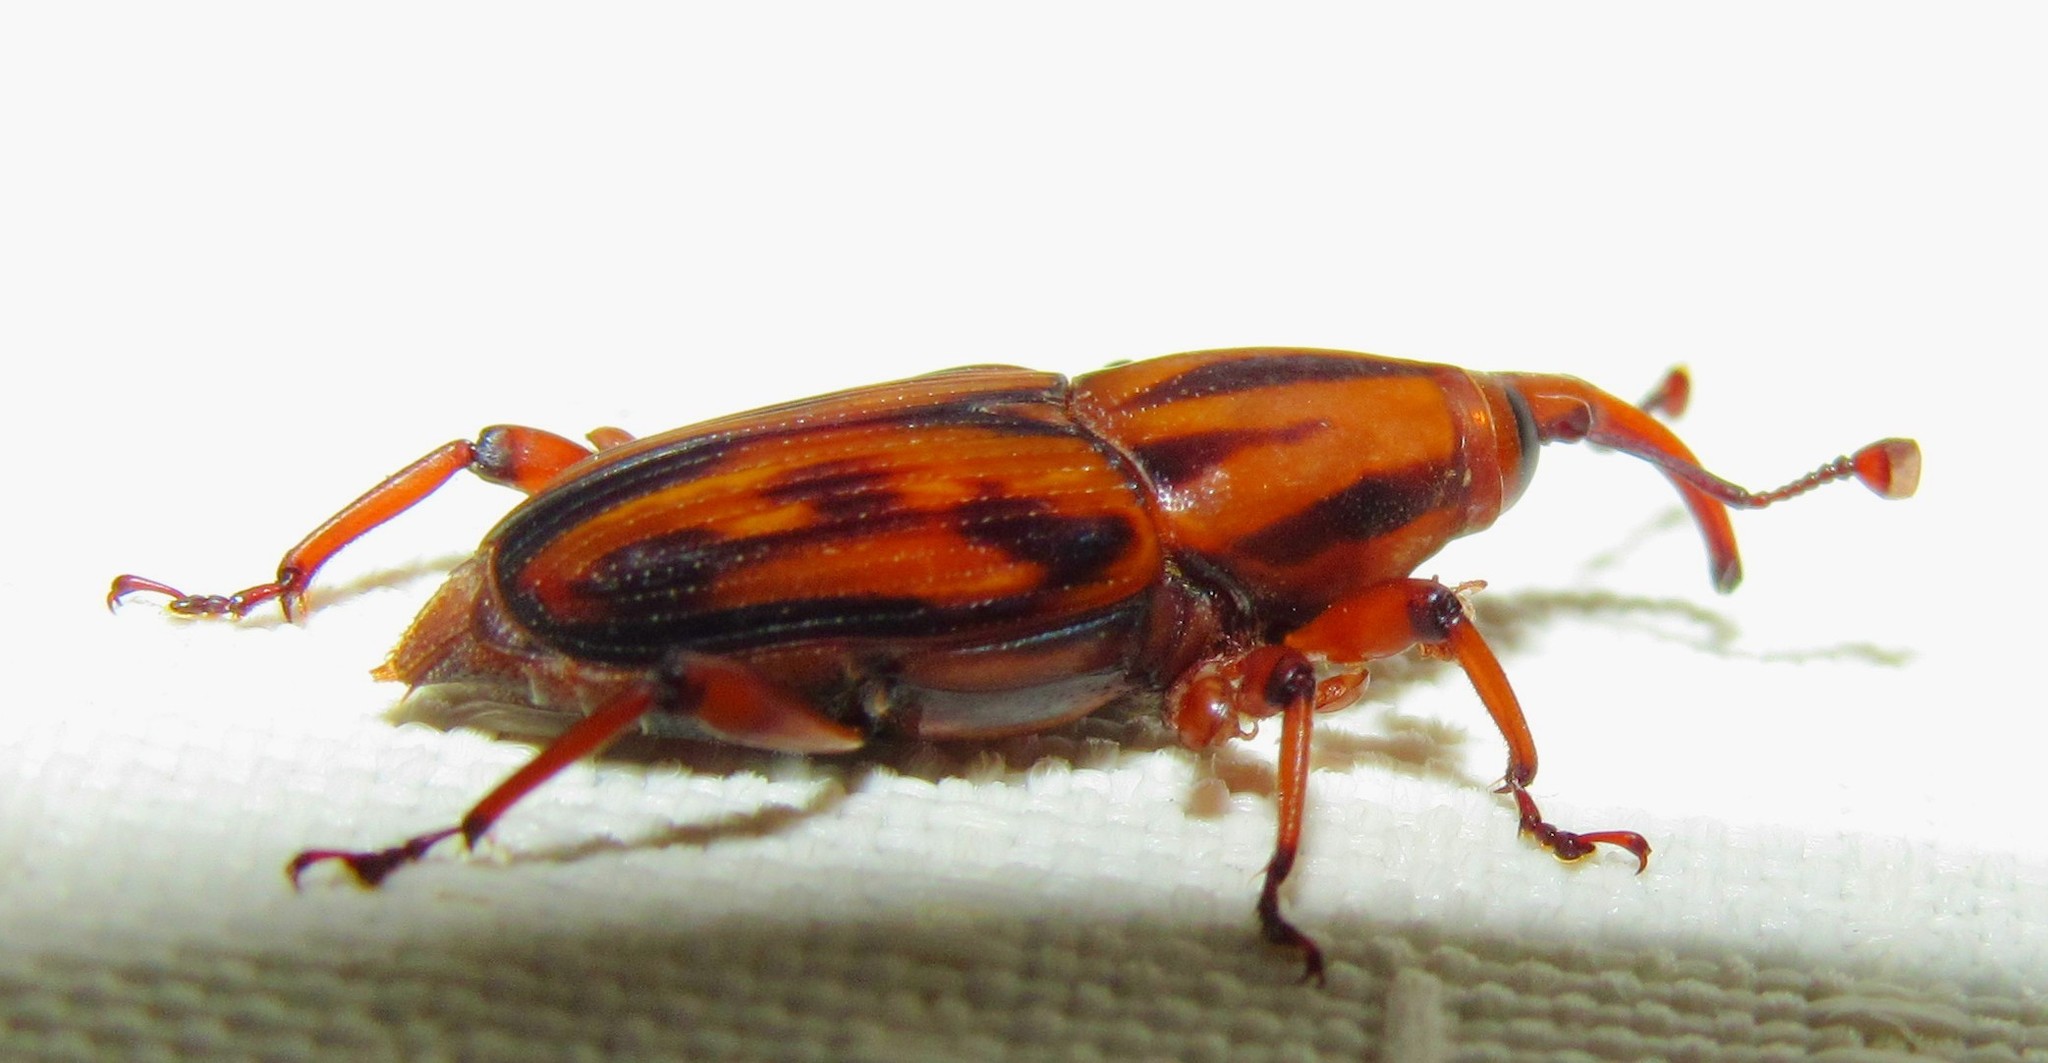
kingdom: Animalia
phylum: Arthropoda
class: Insecta
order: Coleoptera
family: Dryophthoridae
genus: Metamasius
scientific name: Metamasius hemipterus
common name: Weevil
